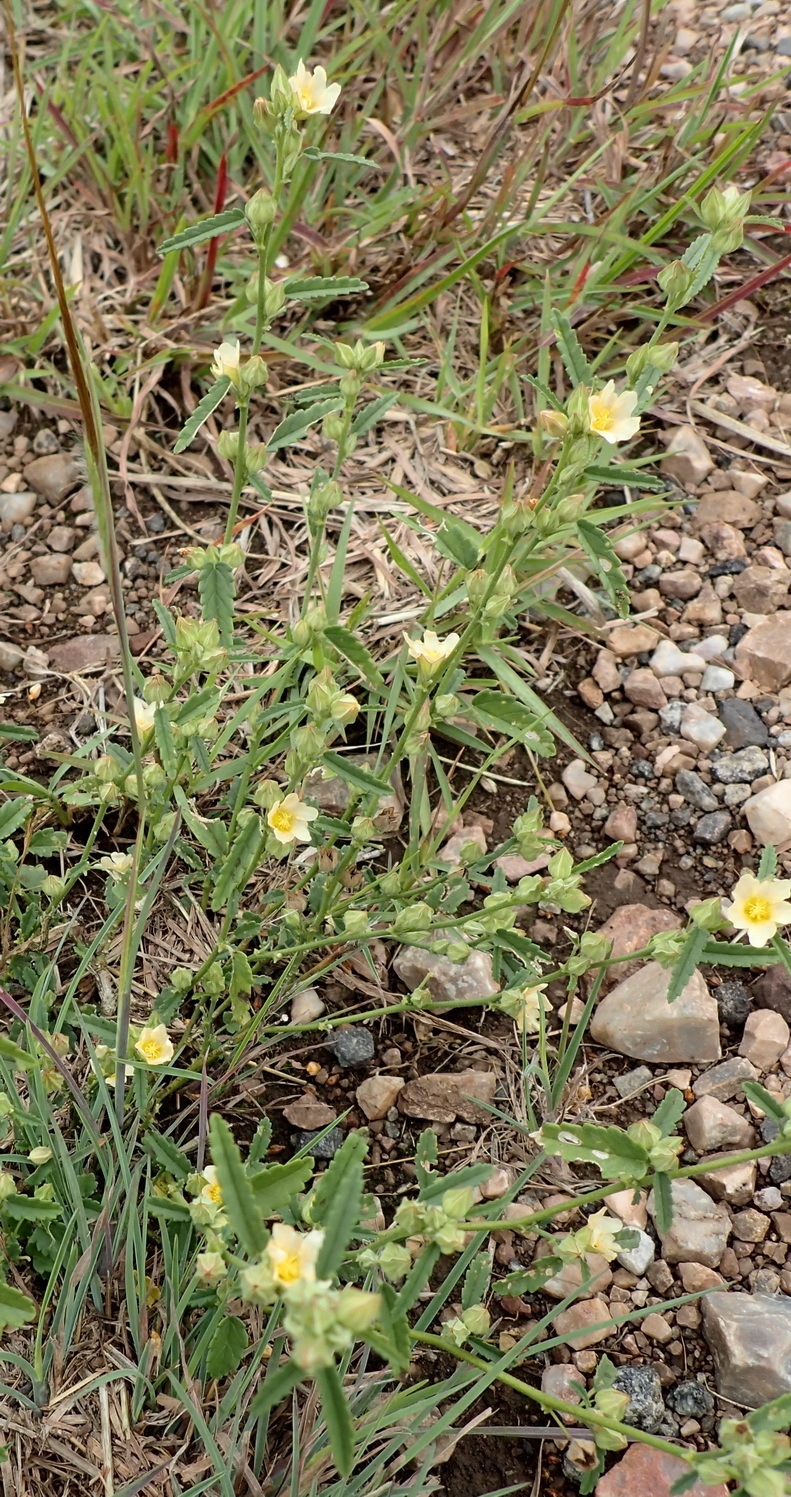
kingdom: Plantae
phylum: Tracheophyta
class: Magnoliopsida
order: Malvales
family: Malvaceae
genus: Sida
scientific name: Sida lancifolia
